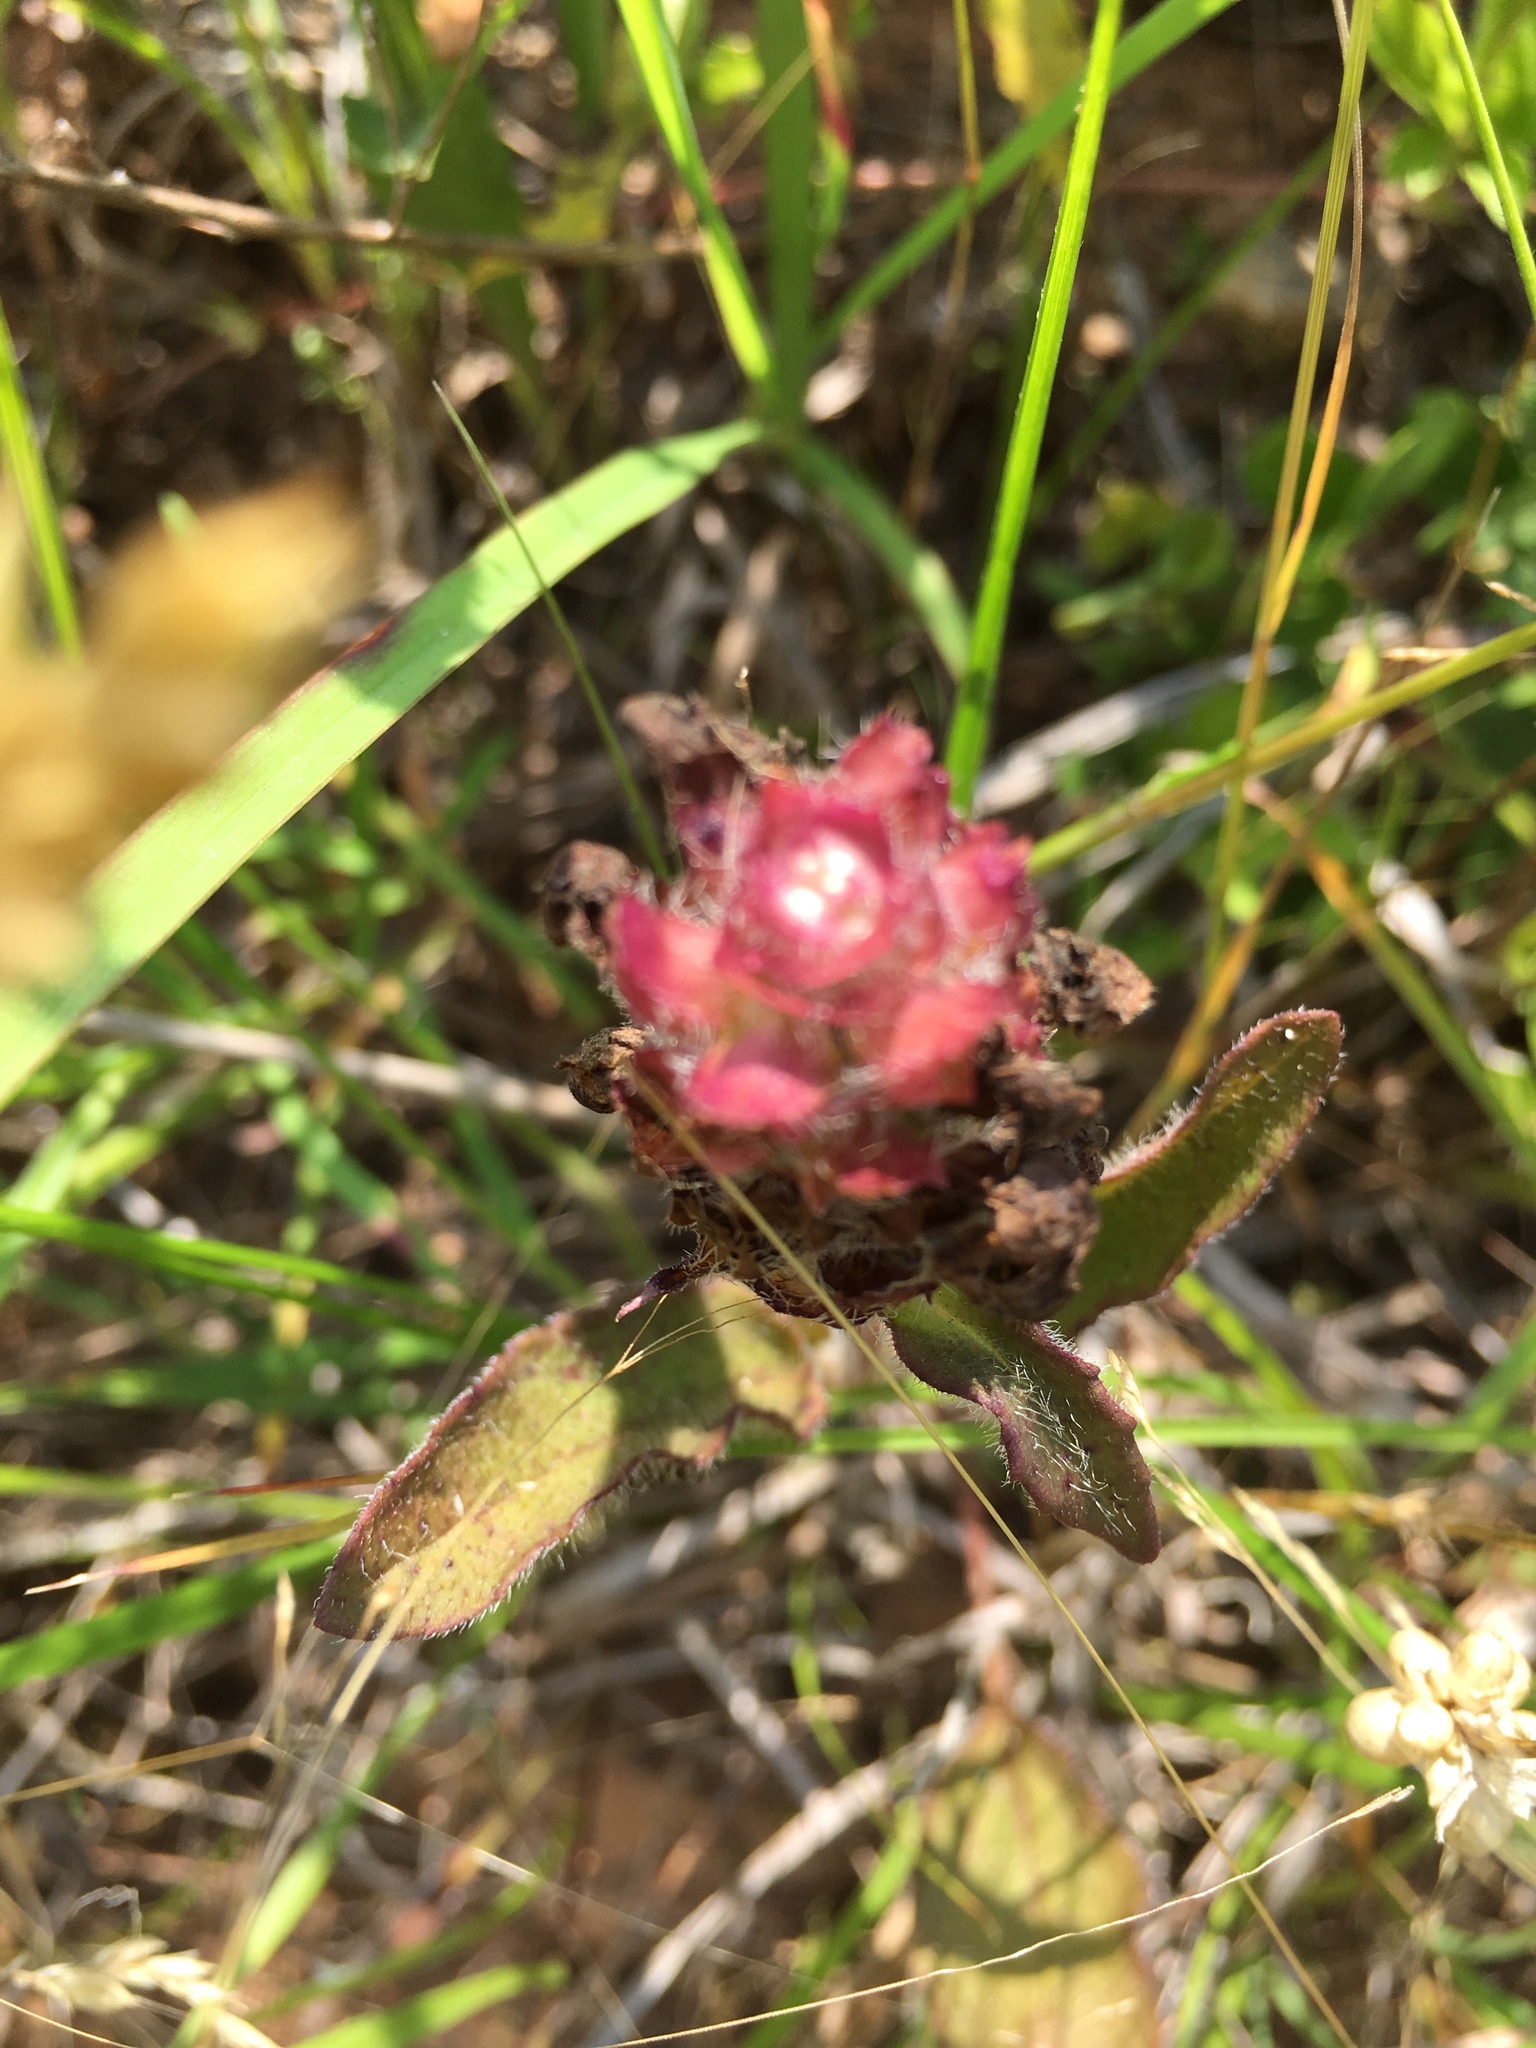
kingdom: Plantae
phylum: Tracheophyta
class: Magnoliopsida
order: Lamiales
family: Lamiaceae
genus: Prunella
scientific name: Prunella vulgaris
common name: Heal-all
